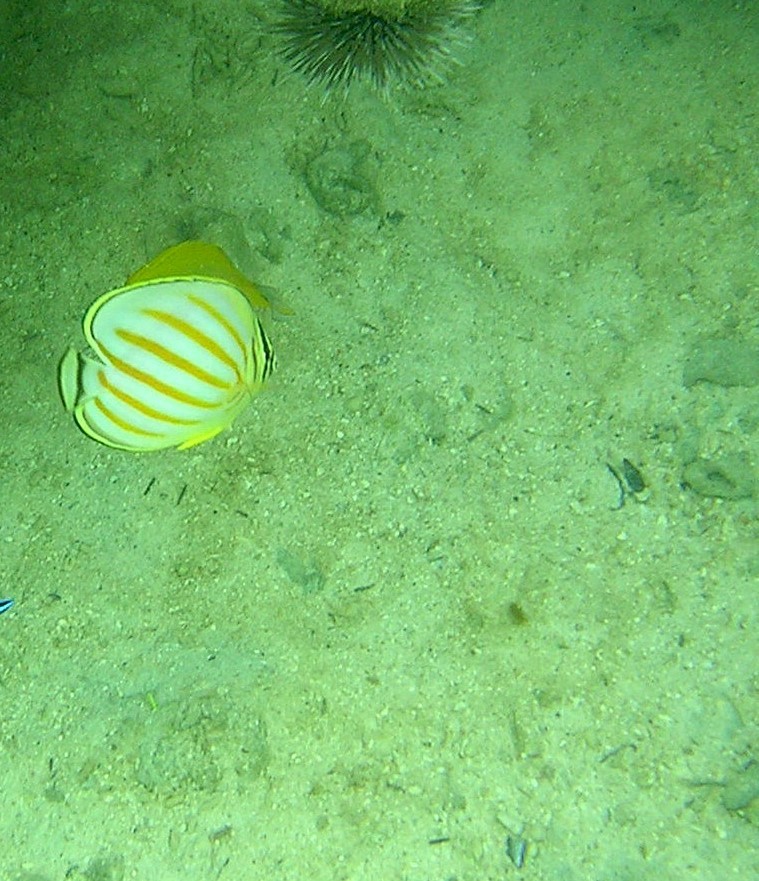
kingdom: Animalia
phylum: Chordata
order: Perciformes
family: Chaetodontidae
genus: Chaetodon
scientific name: Chaetodon ornatissimus
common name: Ornate butterflyfish
